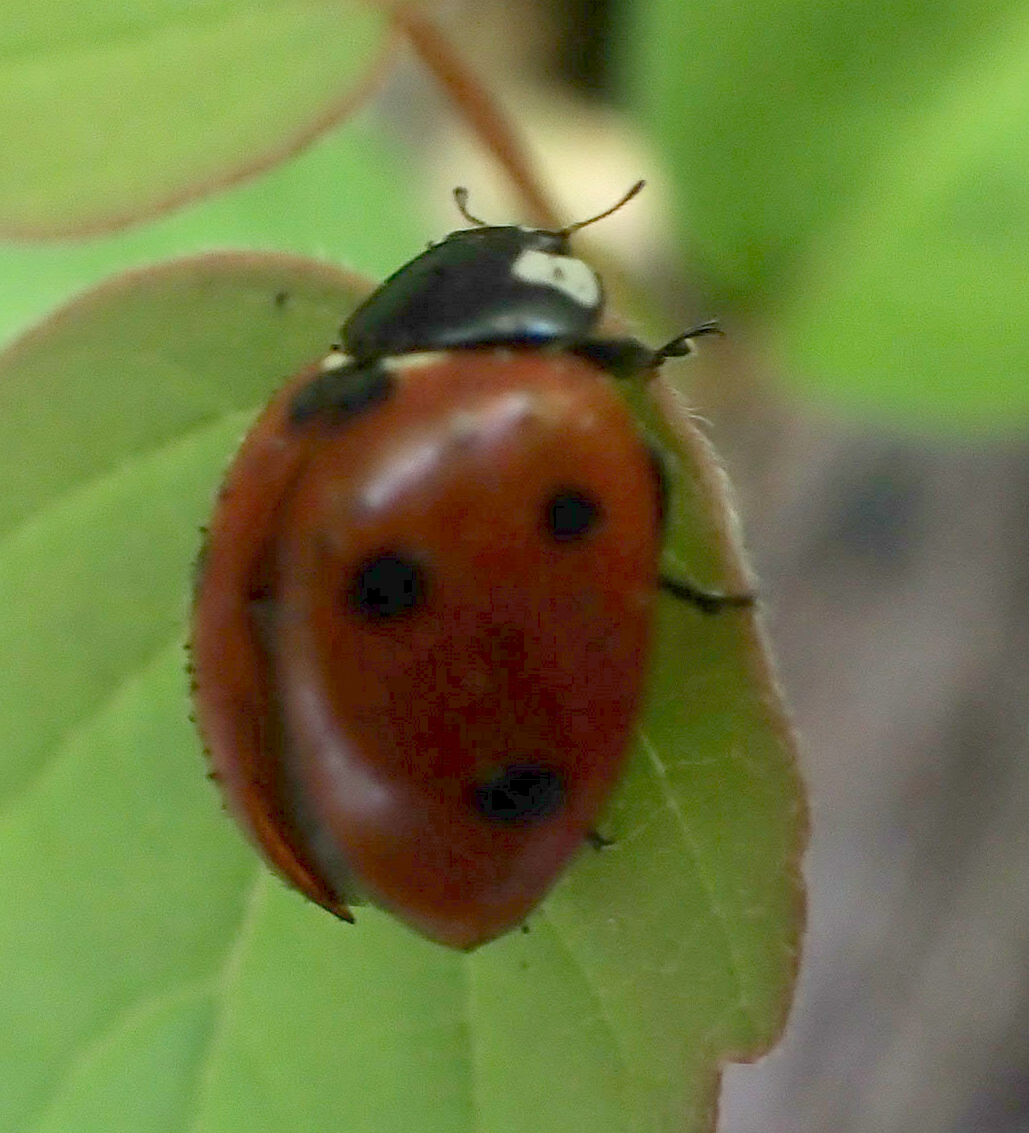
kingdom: Animalia
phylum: Arthropoda
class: Insecta
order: Coleoptera
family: Coccinellidae
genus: Coccinella
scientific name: Coccinella septempunctata
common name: Sevenspotted lady beetle
